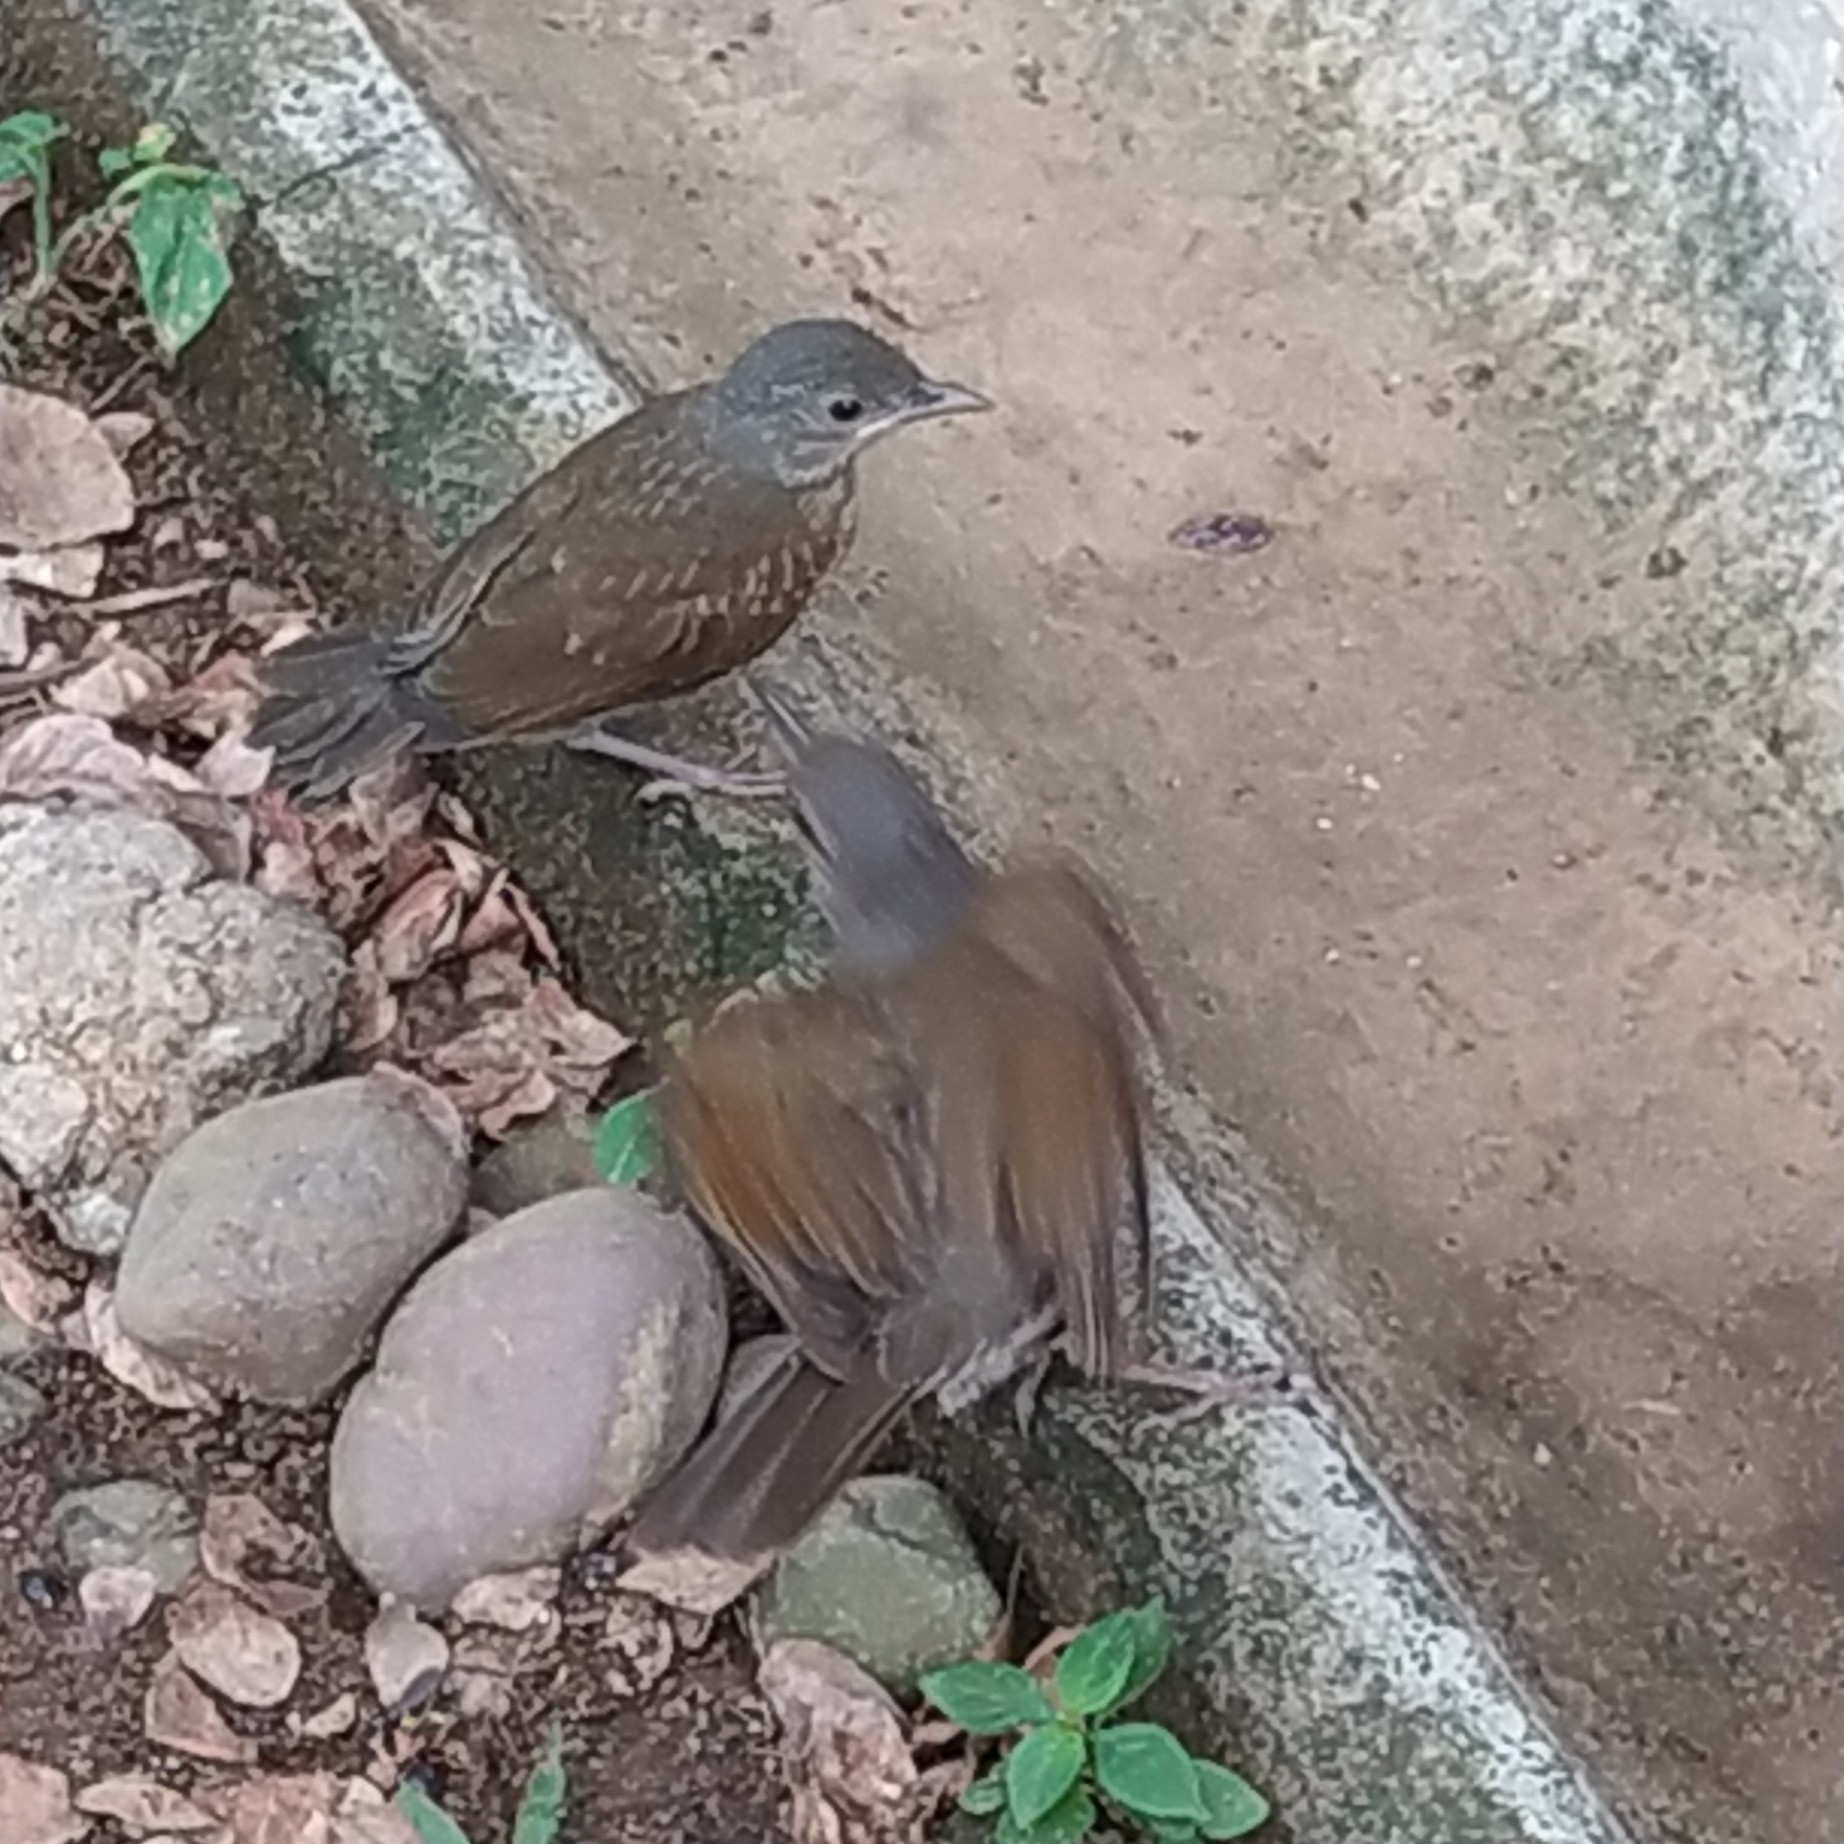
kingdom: Animalia
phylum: Chordata
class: Aves
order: Passeriformes
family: Turdidae
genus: Turdus
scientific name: Turdus leucomelas
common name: Pale-breasted thrush
